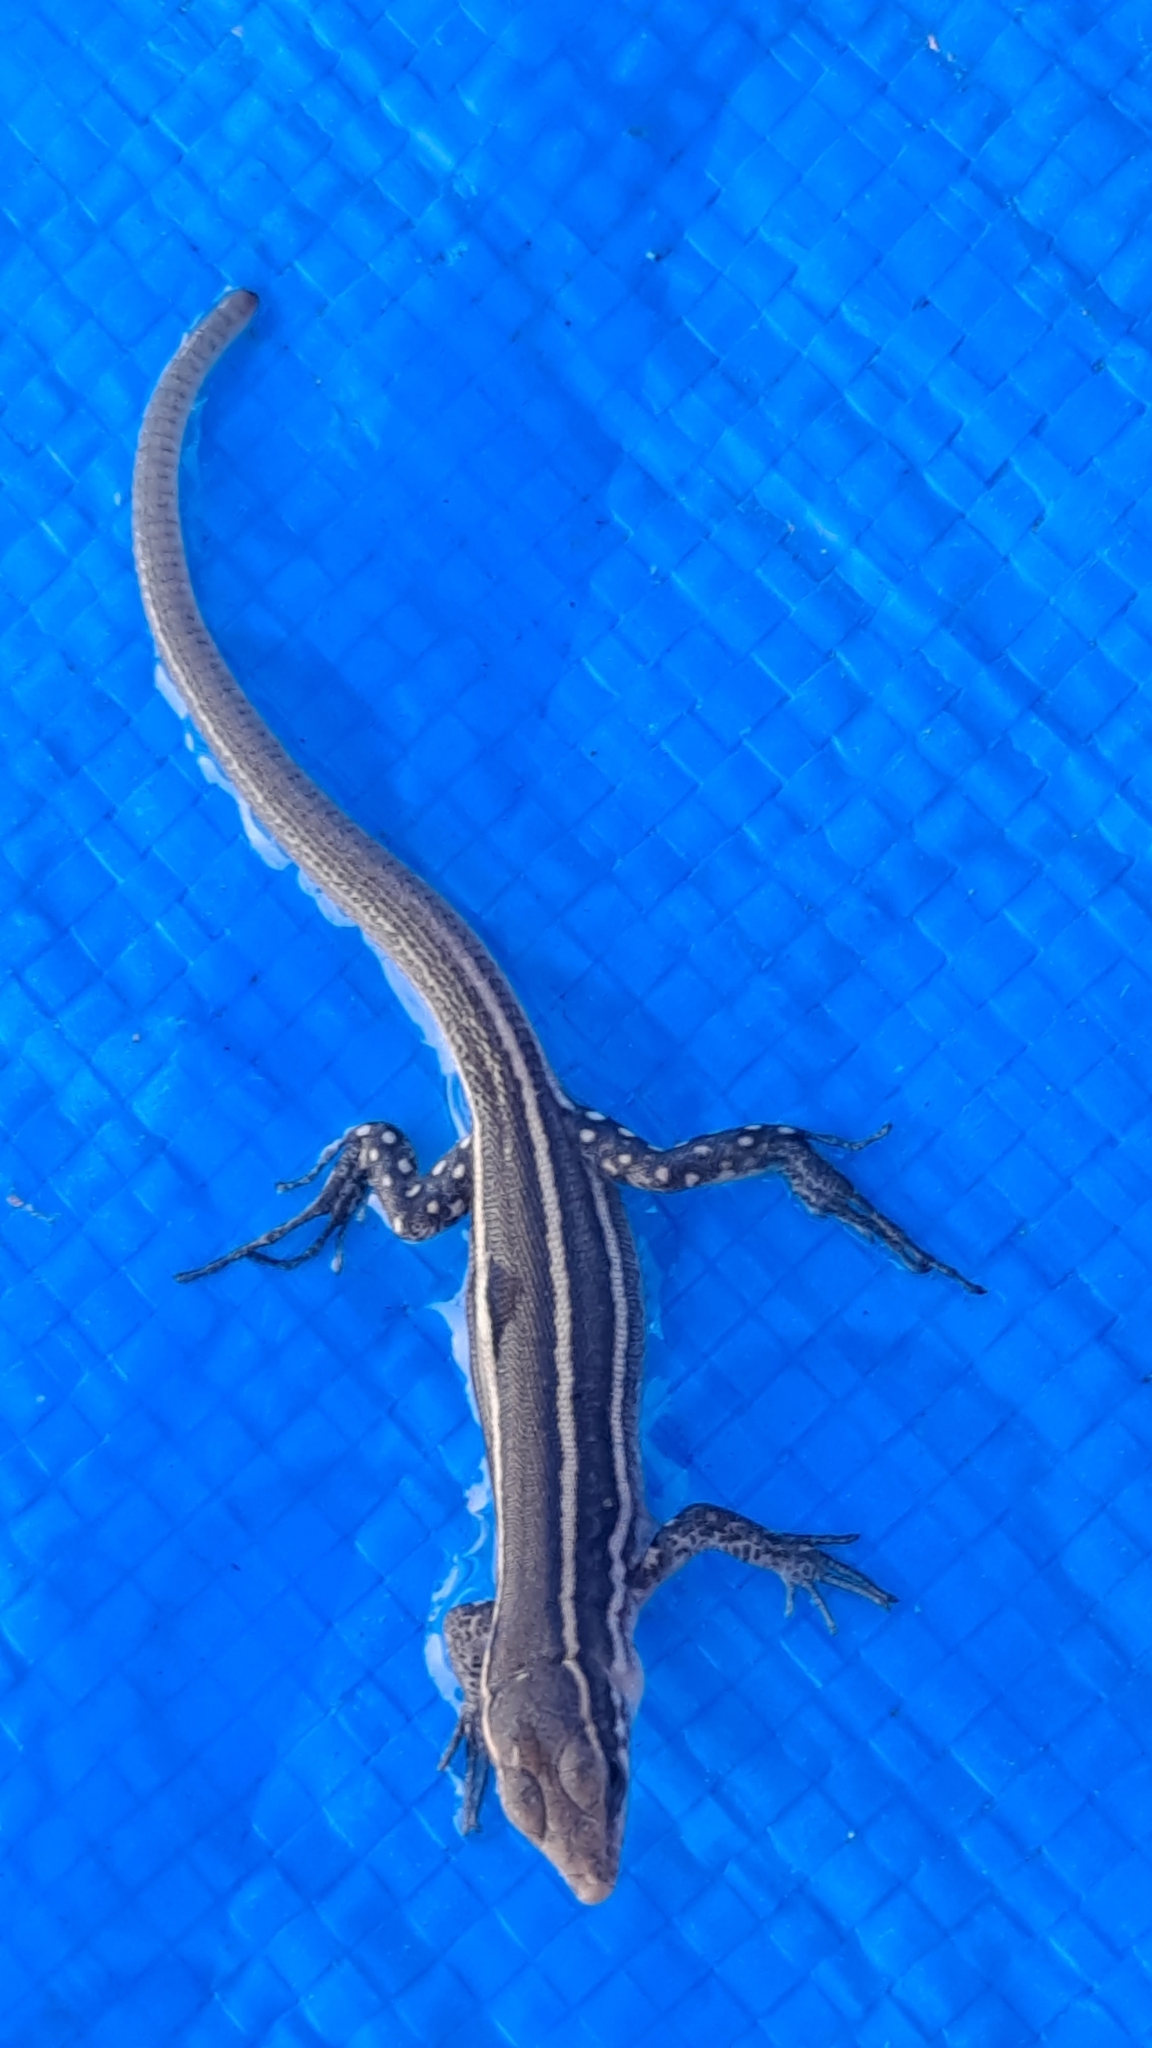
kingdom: Animalia
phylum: Chordata
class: Squamata
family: Lacertidae
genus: Gallotia
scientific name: Gallotia atlantica
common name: Atlantic lizard
